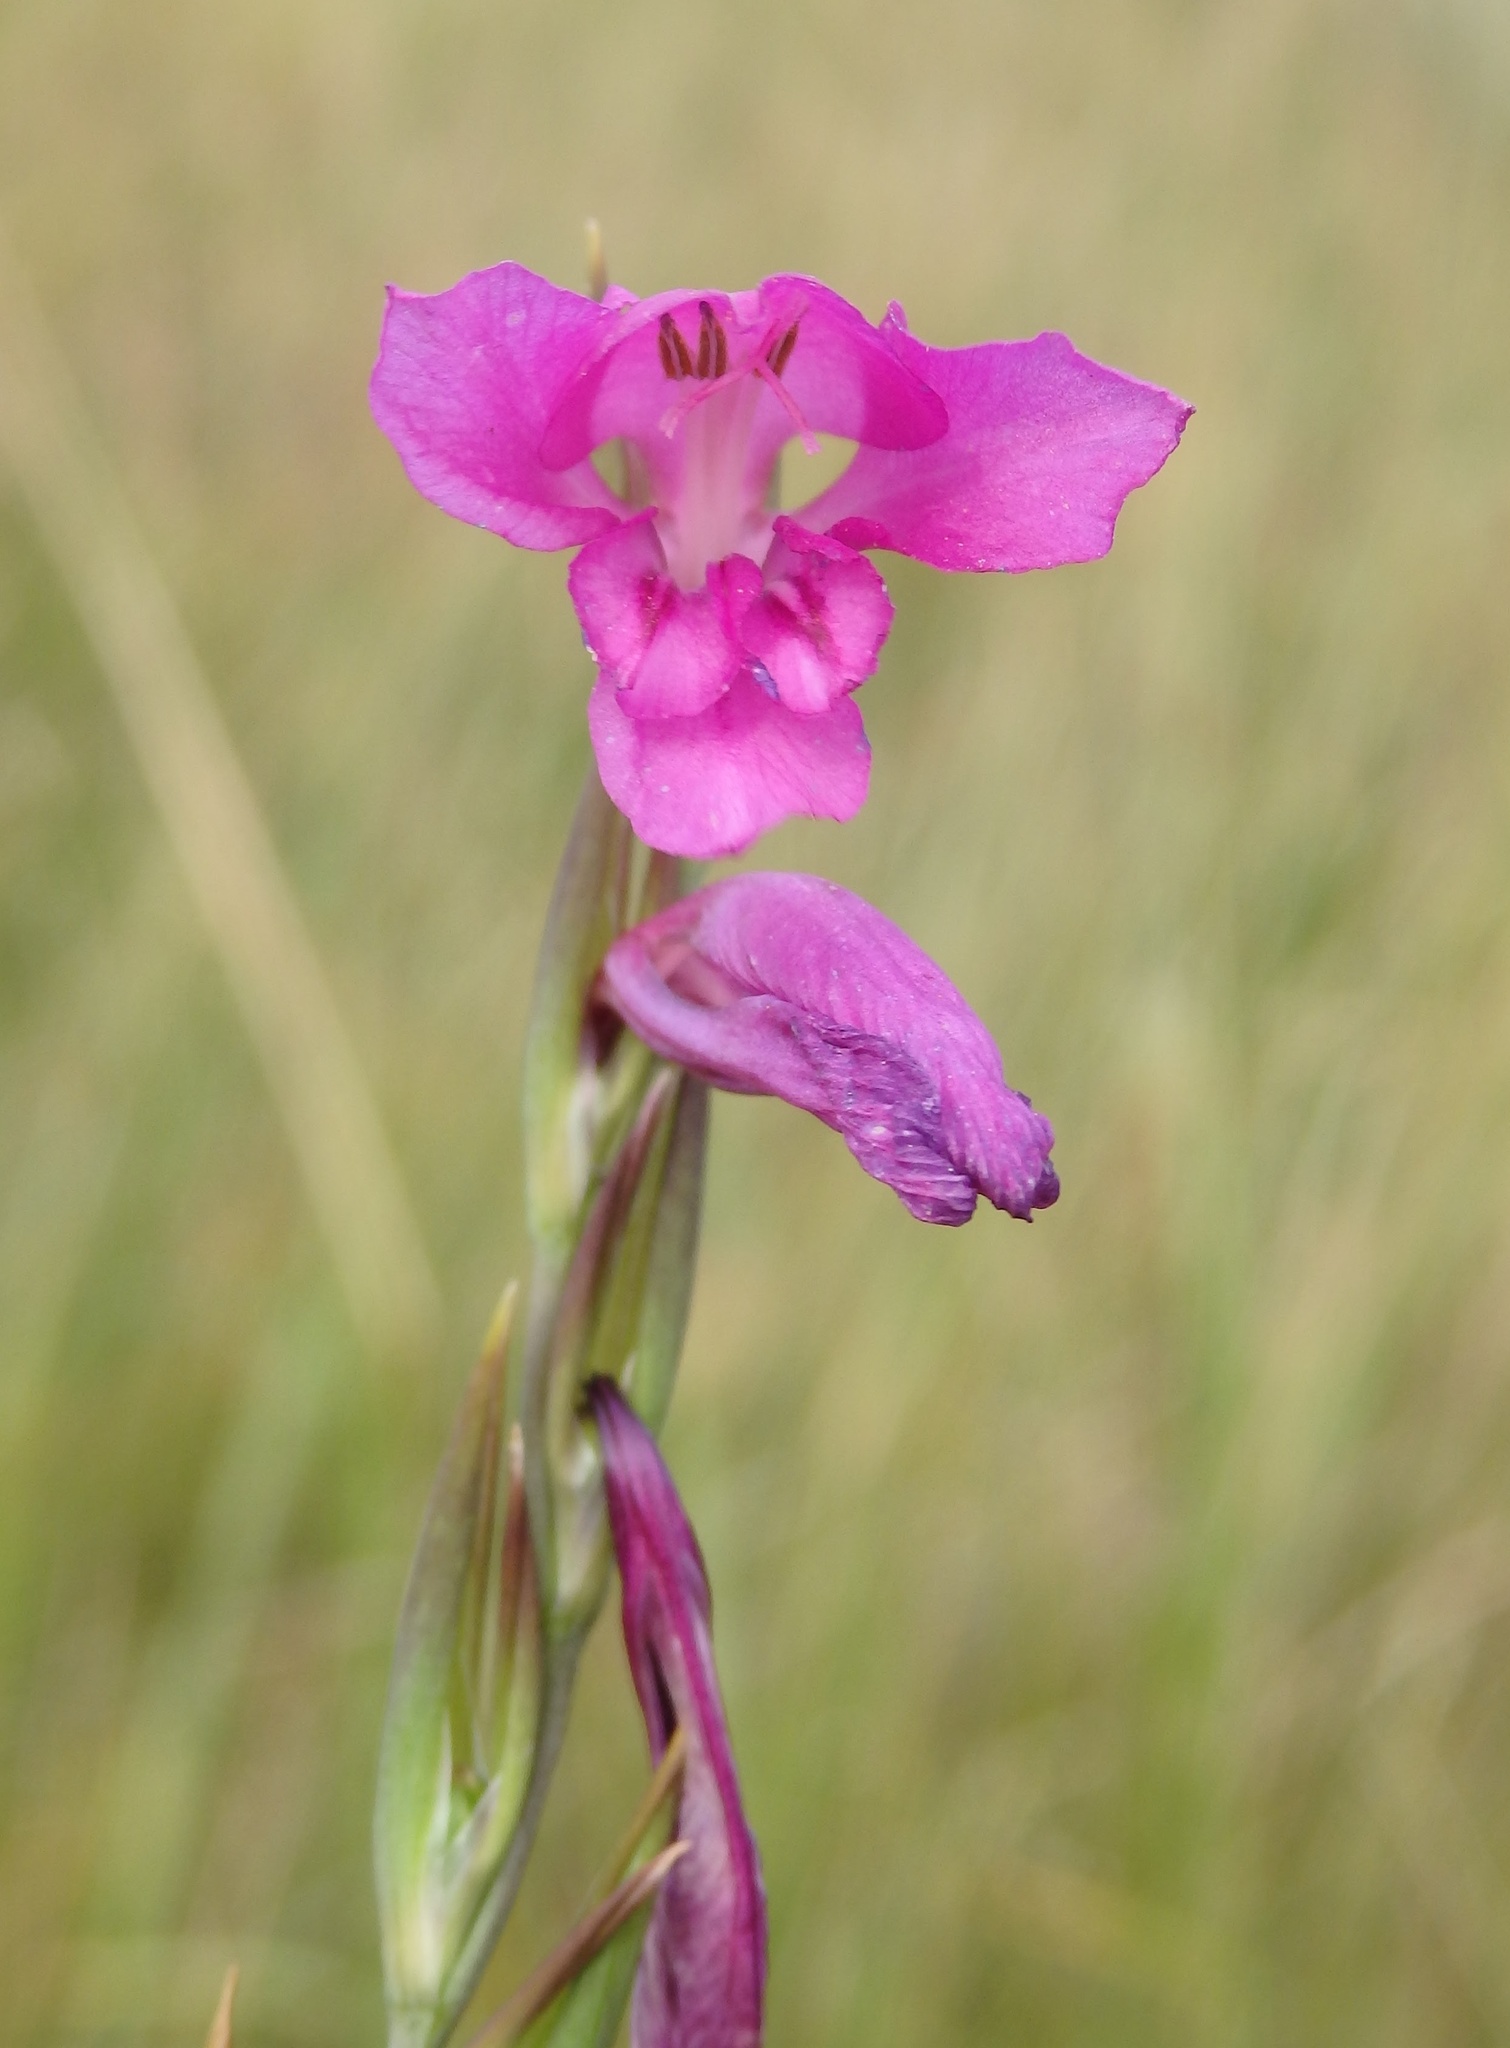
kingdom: Plantae
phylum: Tracheophyta
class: Liliopsida
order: Asparagales
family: Iridaceae
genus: Gladiolus
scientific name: Gladiolus imbricatus
